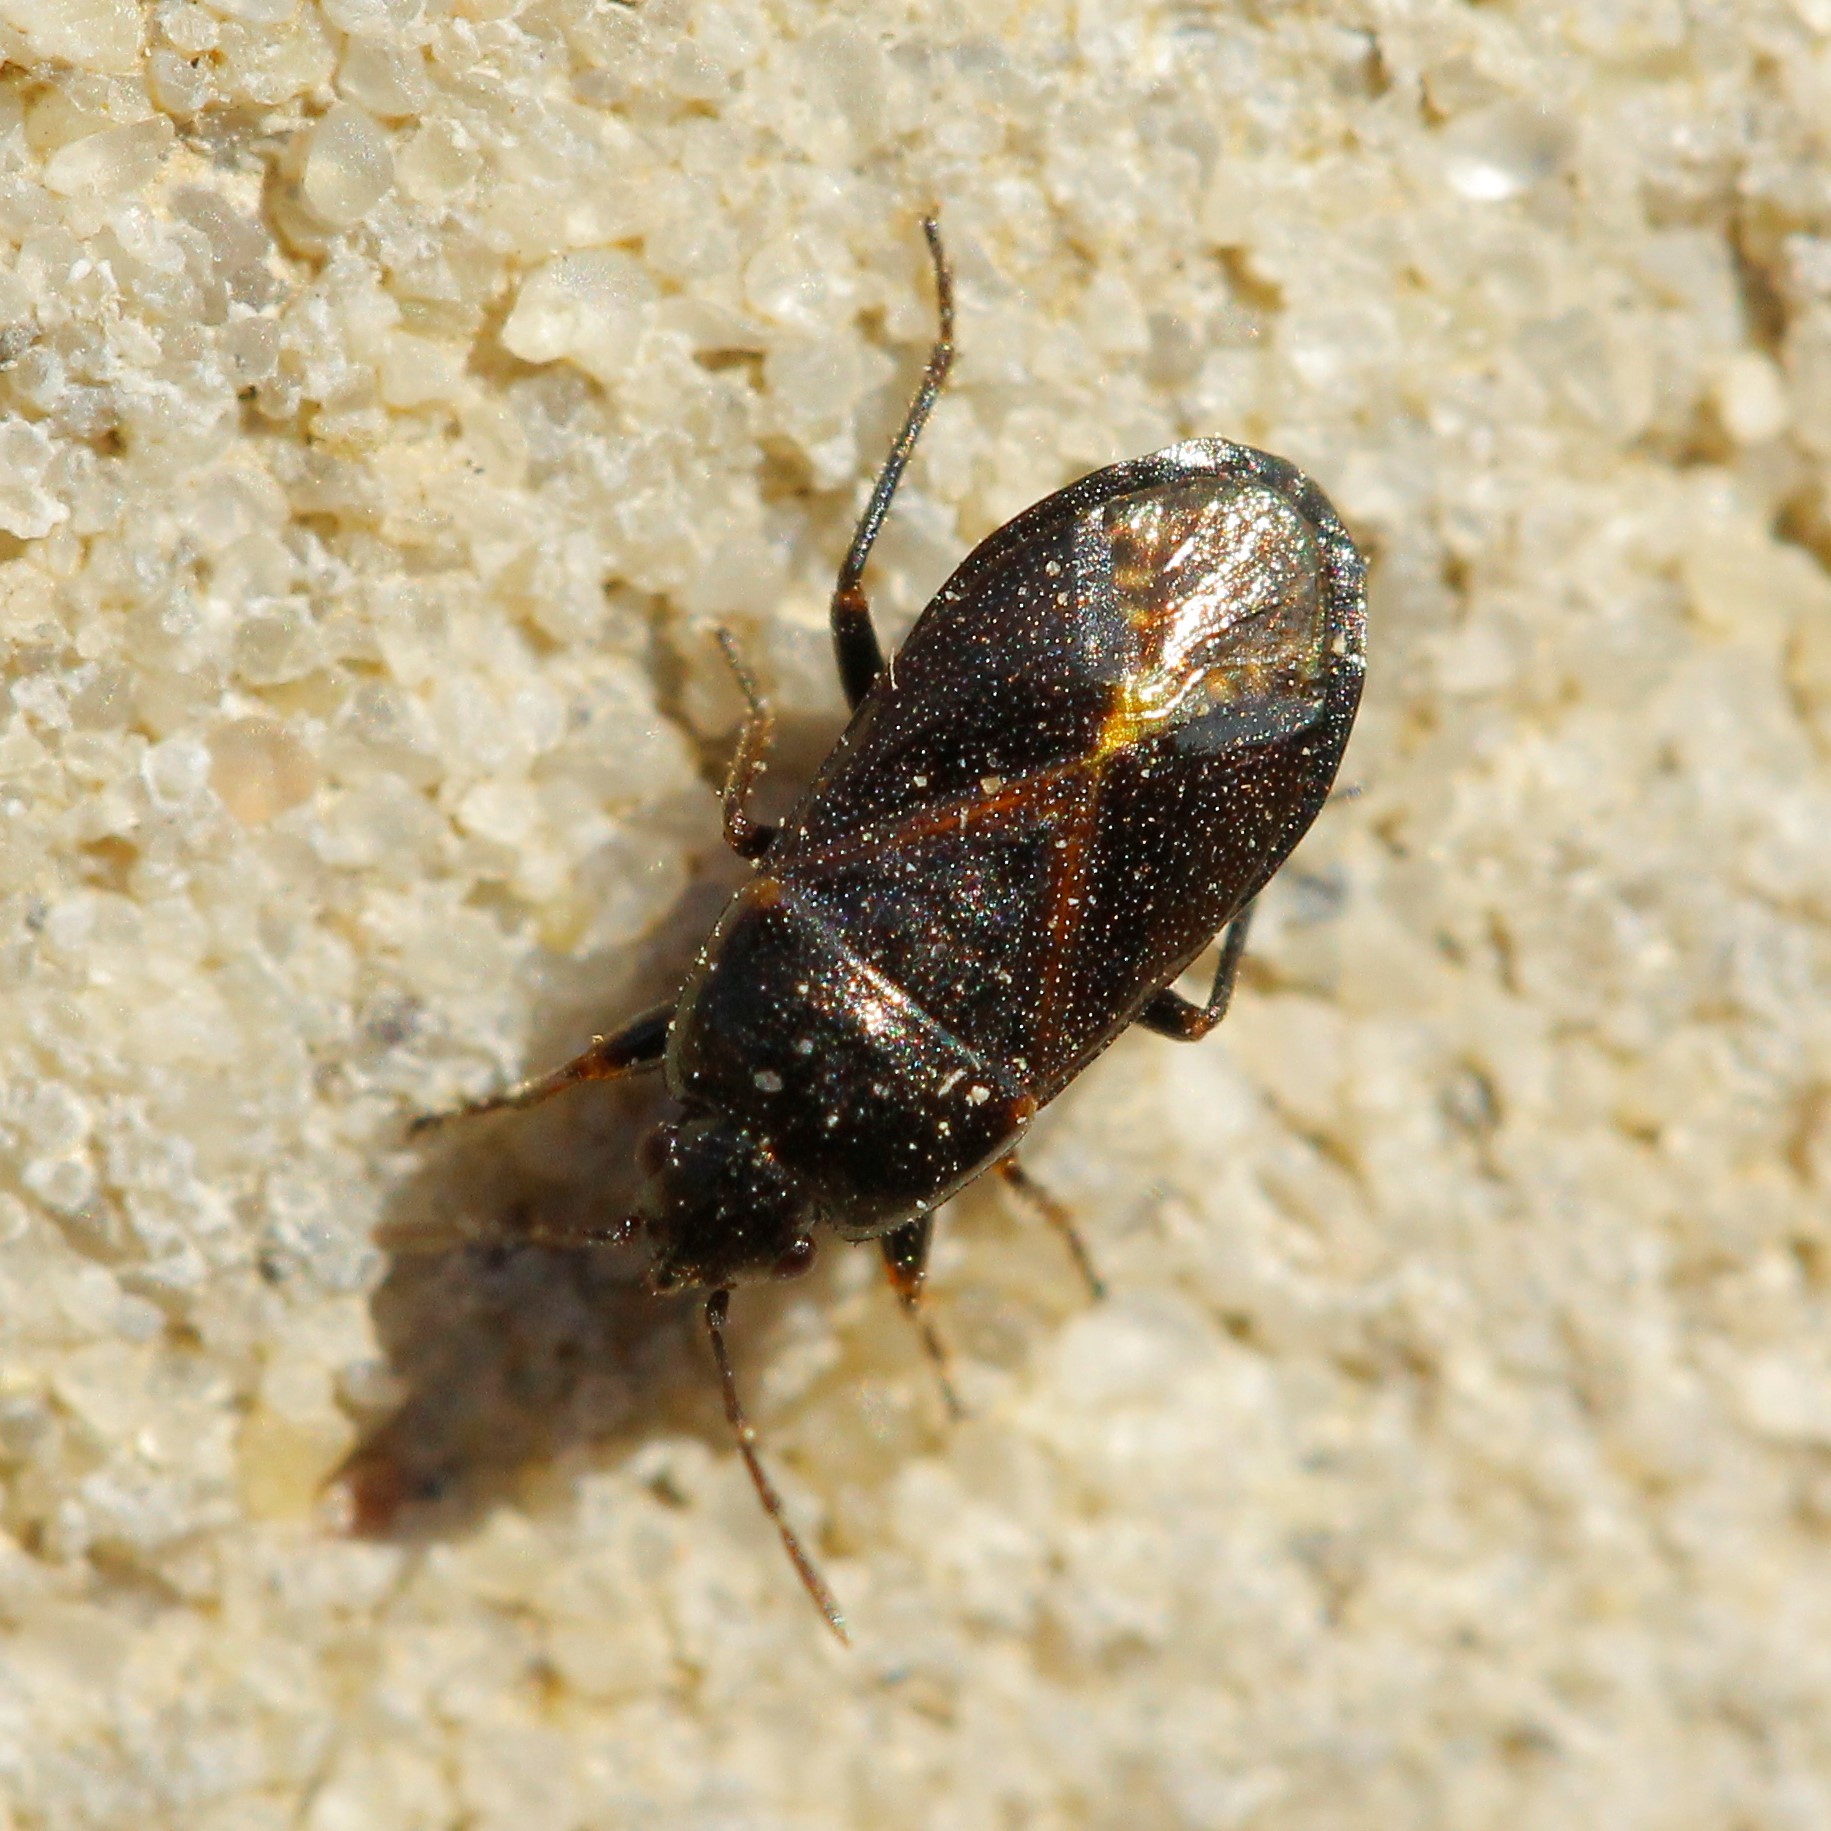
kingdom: Animalia
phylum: Arthropoda
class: Insecta
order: Hemiptera
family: Rhyparochromidae
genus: Lamprodema
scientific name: Lamprodema maura
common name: Seed bug
